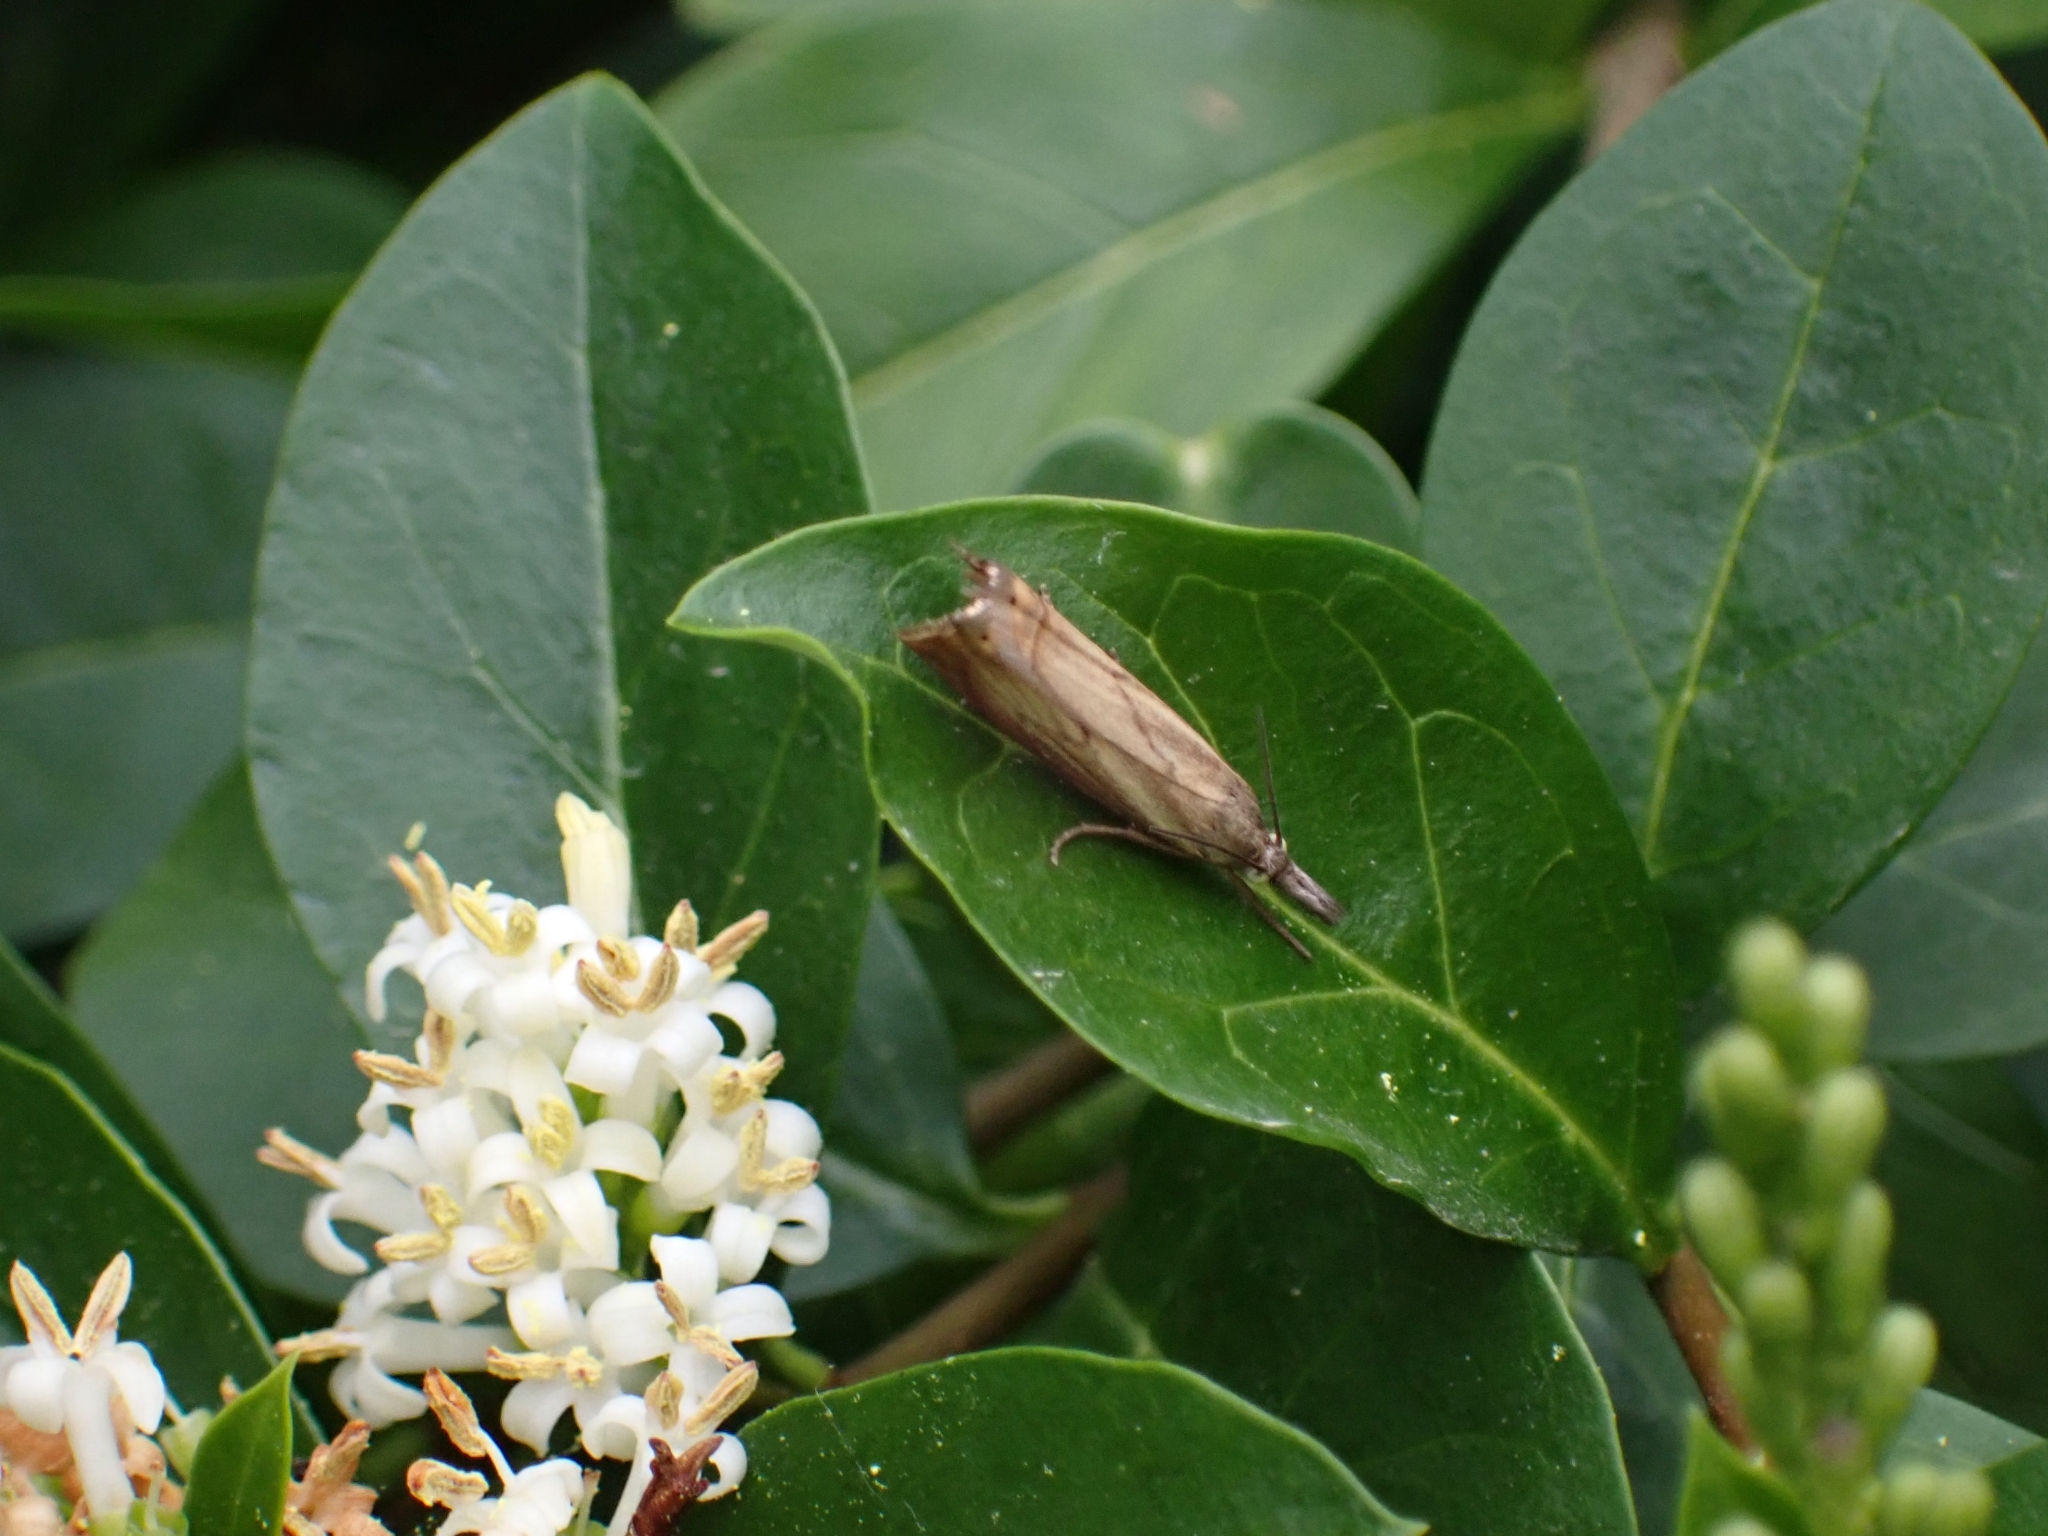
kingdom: Animalia
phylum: Arthropoda
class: Insecta
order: Lepidoptera
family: Crambidae
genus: Chrysoteuchia
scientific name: Chrysoteuchia culmella
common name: Garden grass-veneer
